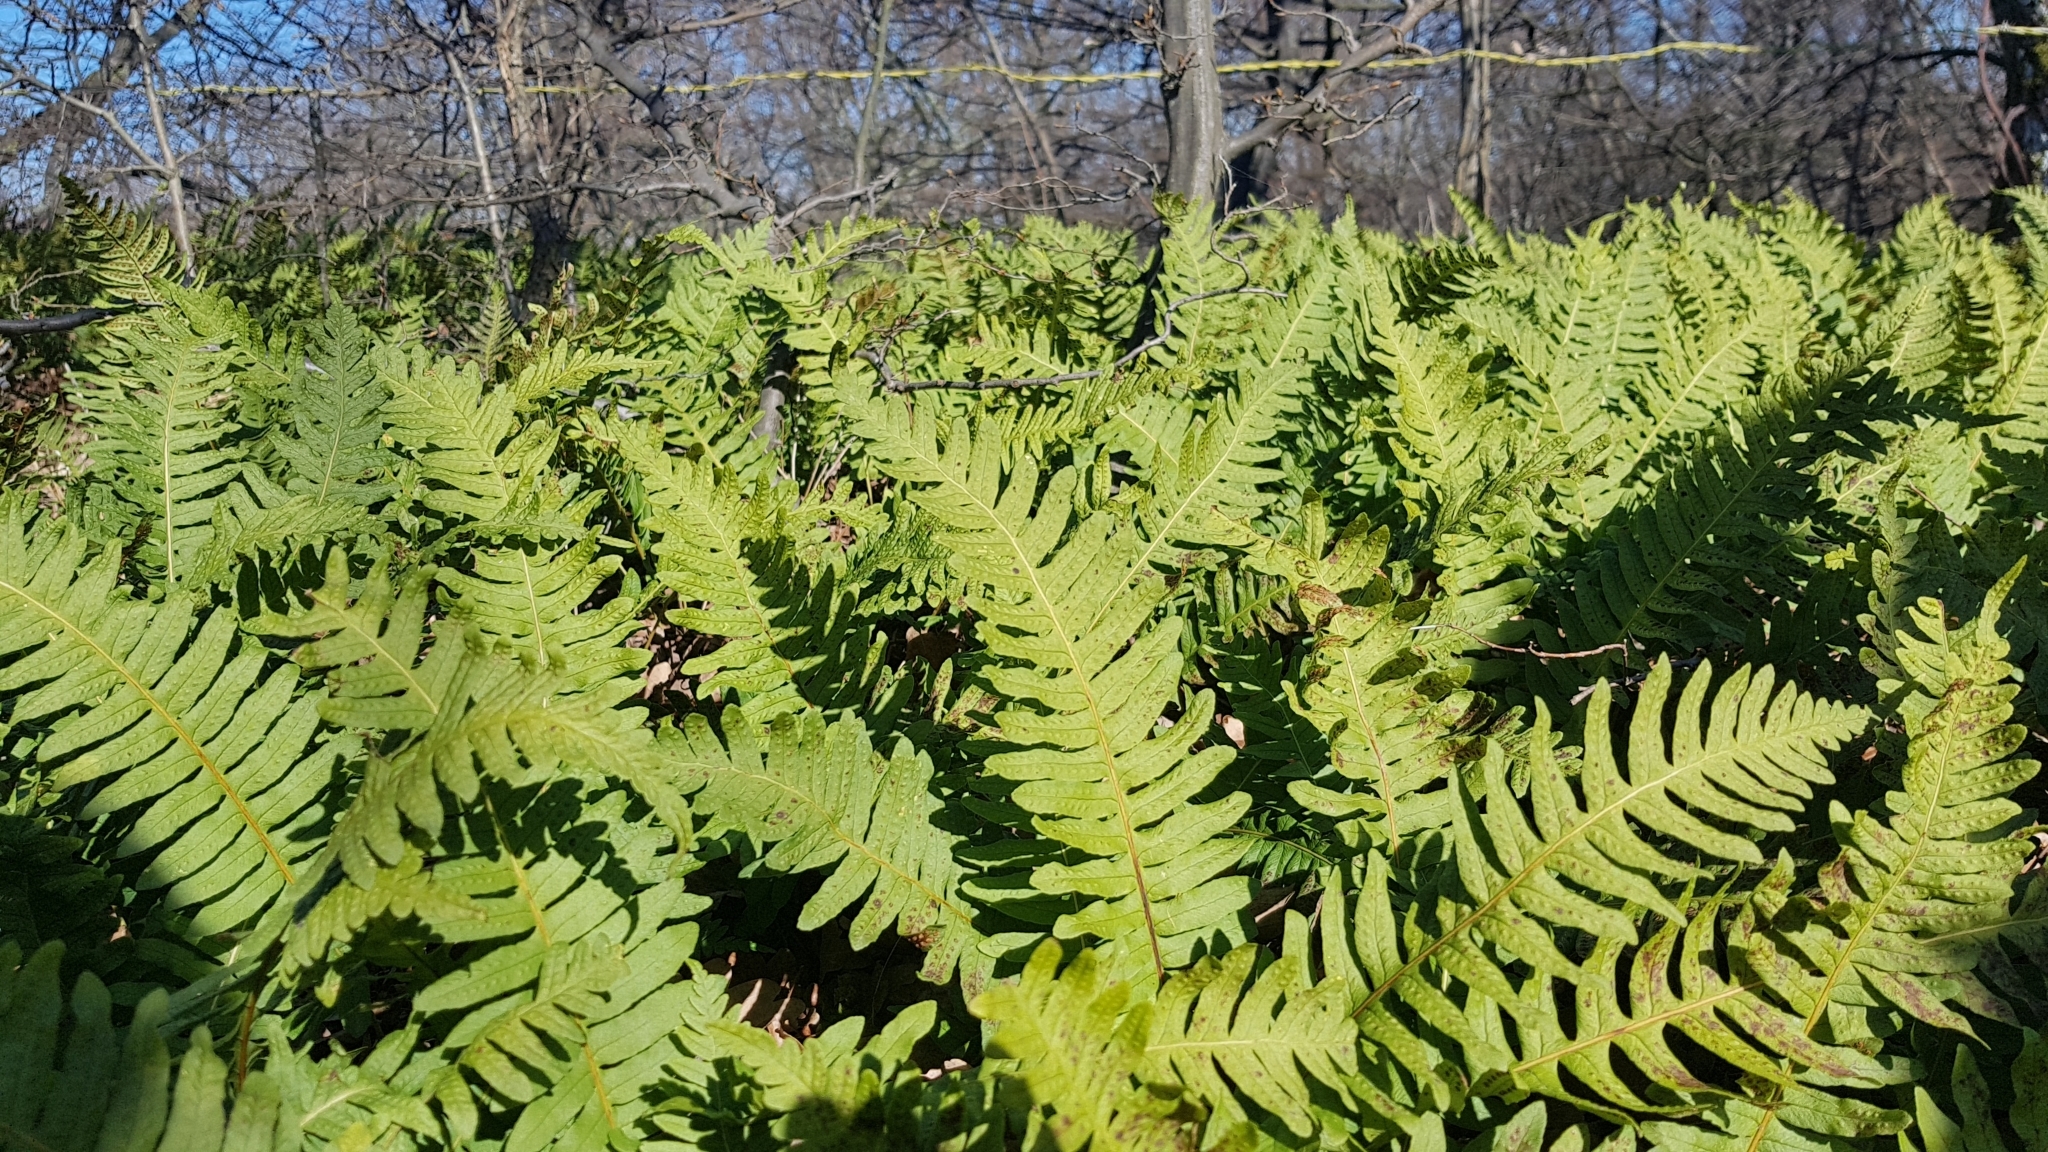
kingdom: Plantae
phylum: Tracheophyta
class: Polypodiopsida
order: Polypodiales
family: Polypodiaceae
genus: Polypodium
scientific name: Polypodium vulgare
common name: Common polypody
